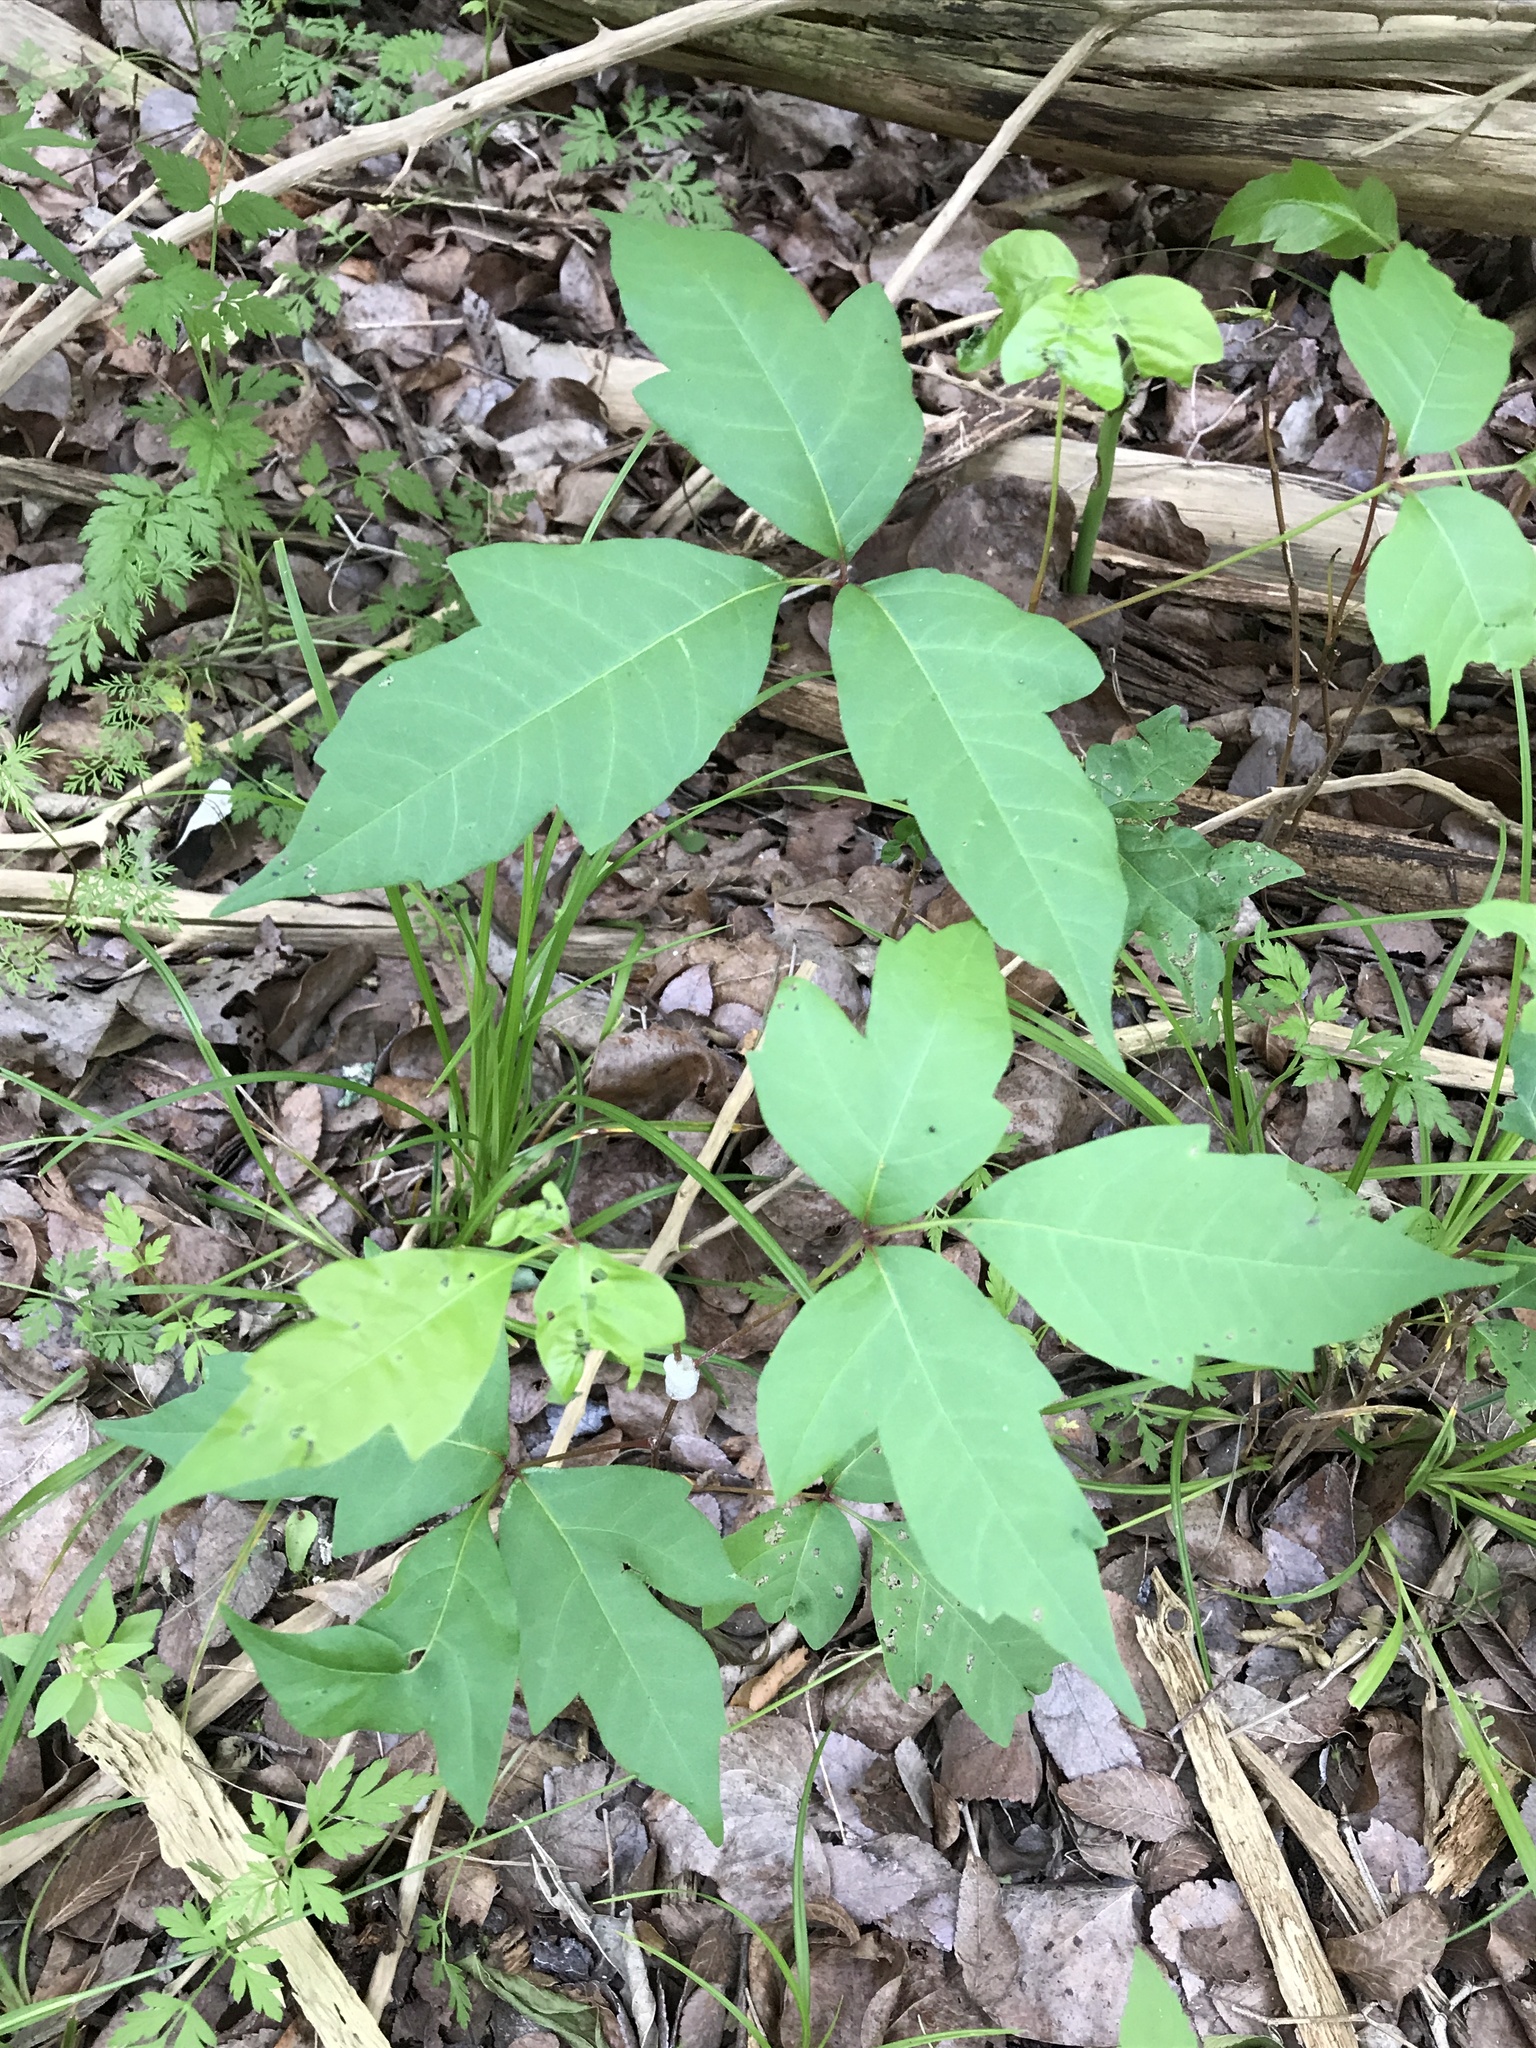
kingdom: Plantae
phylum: Tracheophyta
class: Magnoliopsida
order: Sapindales
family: Anacardiaceae
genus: Toxicodendron
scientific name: Toxicodendron radicans
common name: Poison ivy
